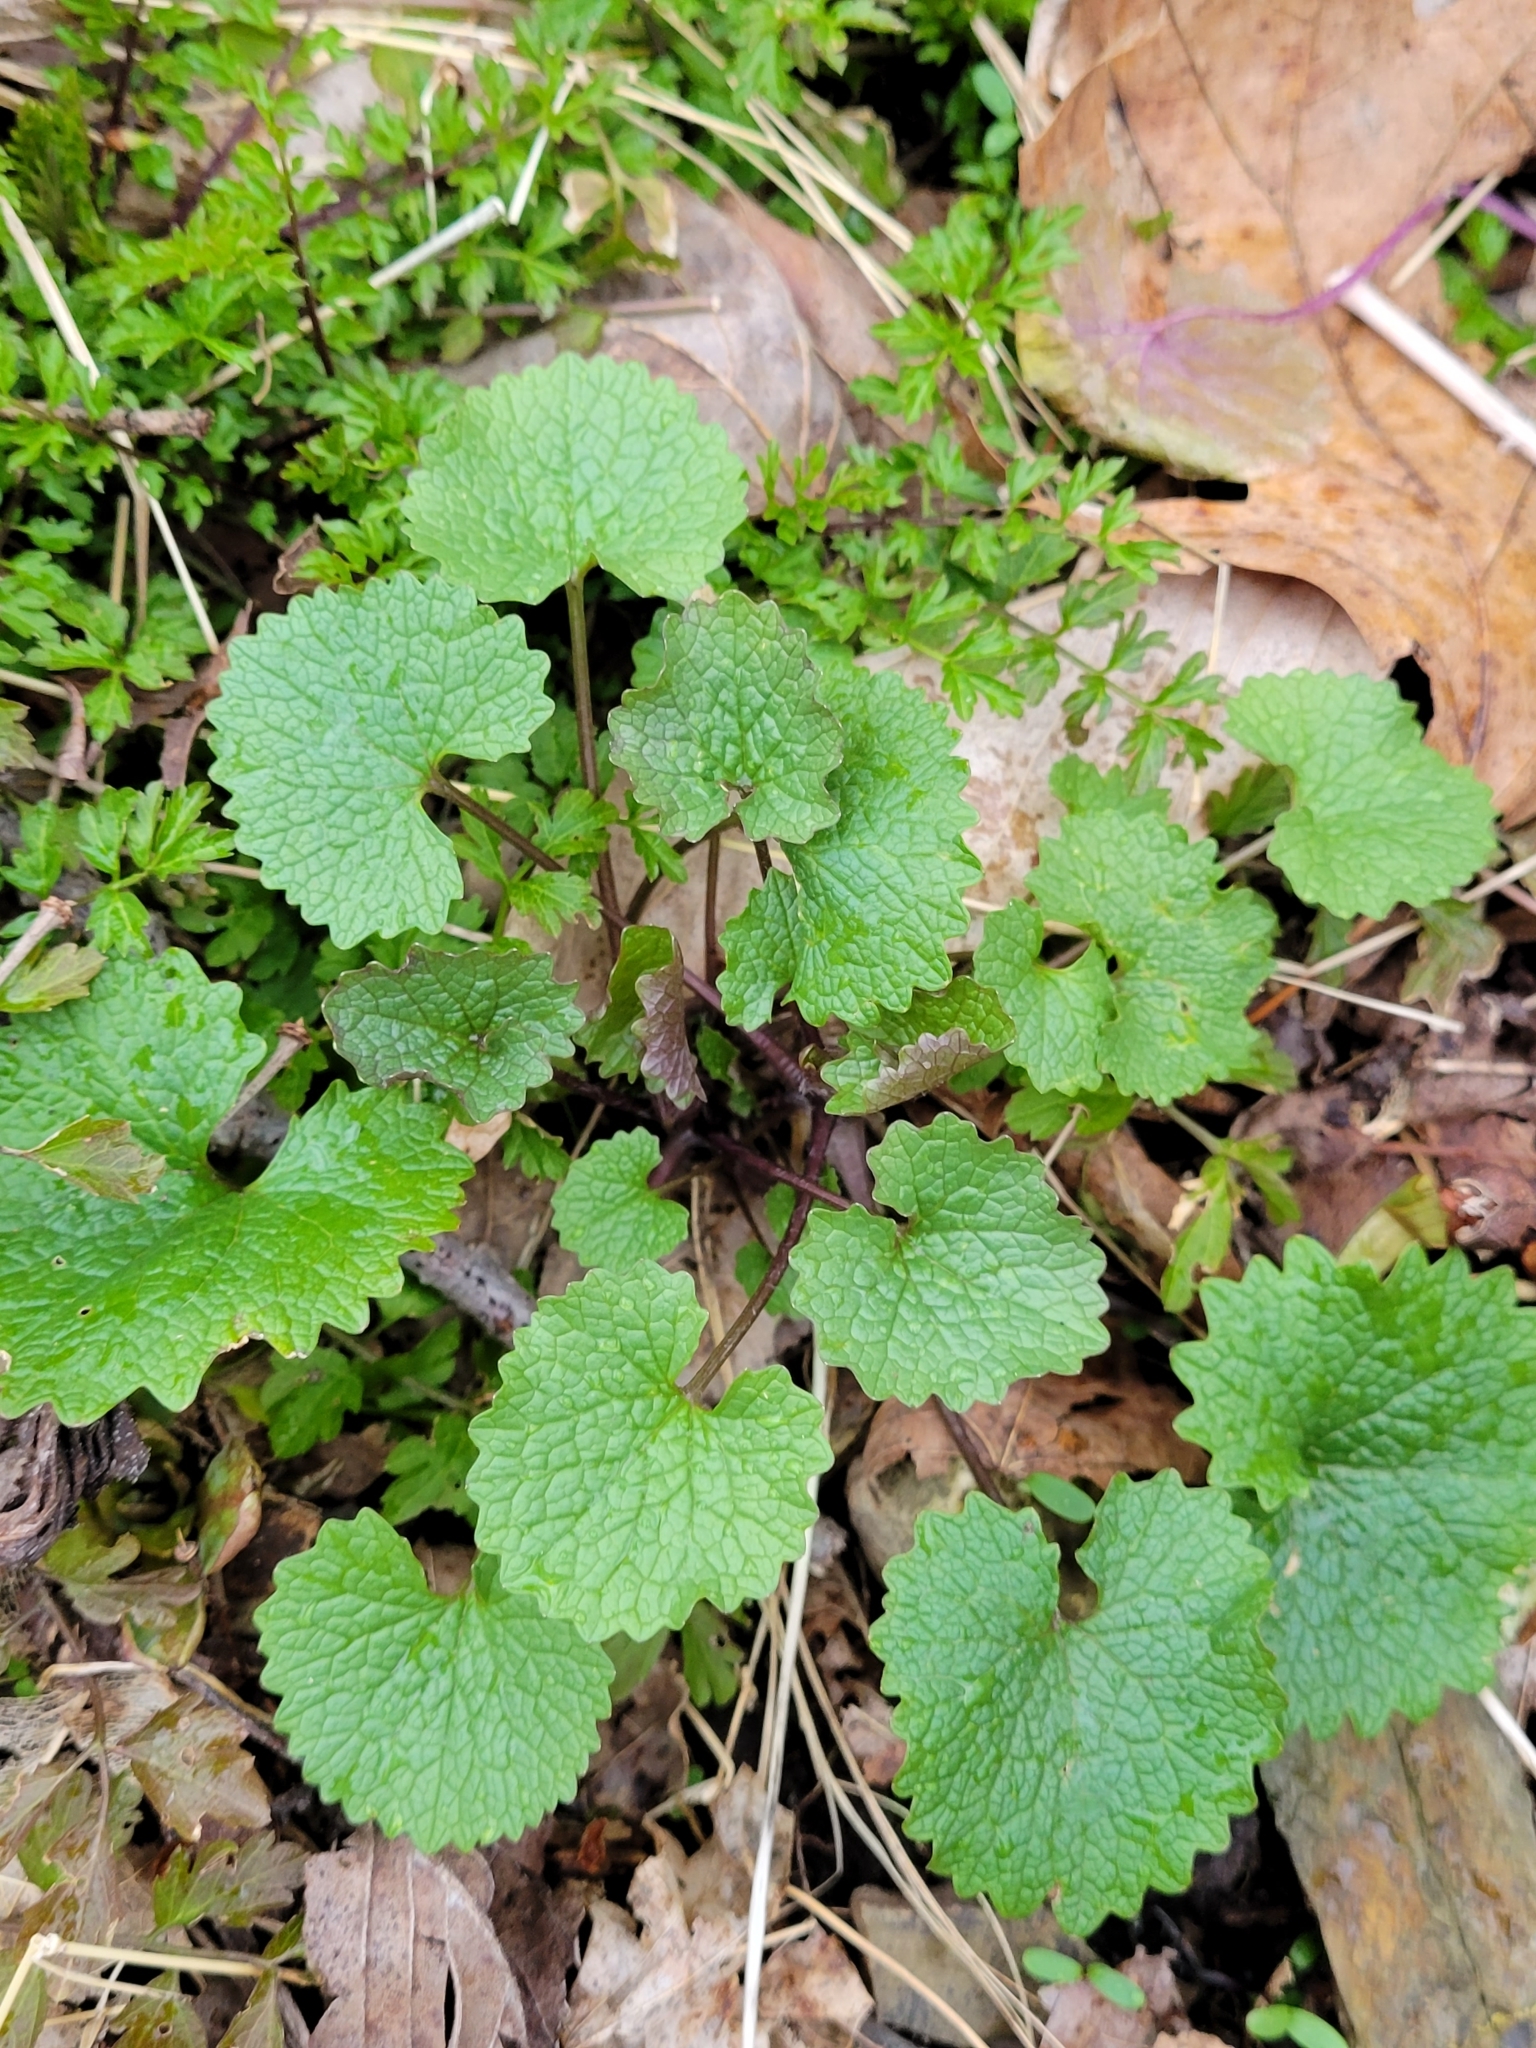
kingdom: Plantae
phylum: Tracheophyta
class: Magnoliopsida
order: Brassicales
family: Brassicaceae
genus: Alliaria
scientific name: Alliaria petiolata
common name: Garlic mustard
